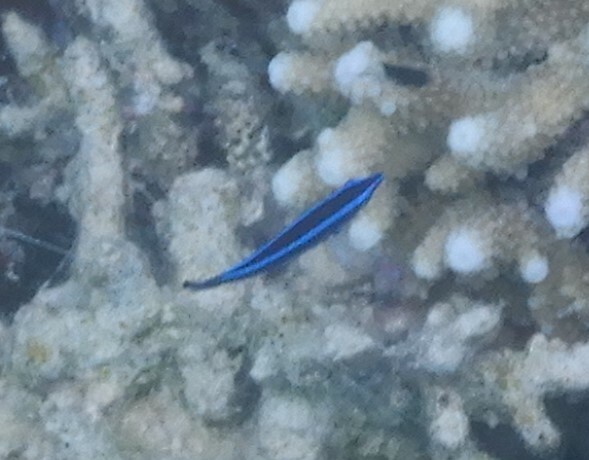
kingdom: Animalia
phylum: Chordata
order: Perciformes
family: Labridae
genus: Larabicus
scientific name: Larabicus quadrilineatus
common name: Fourline wrasse
